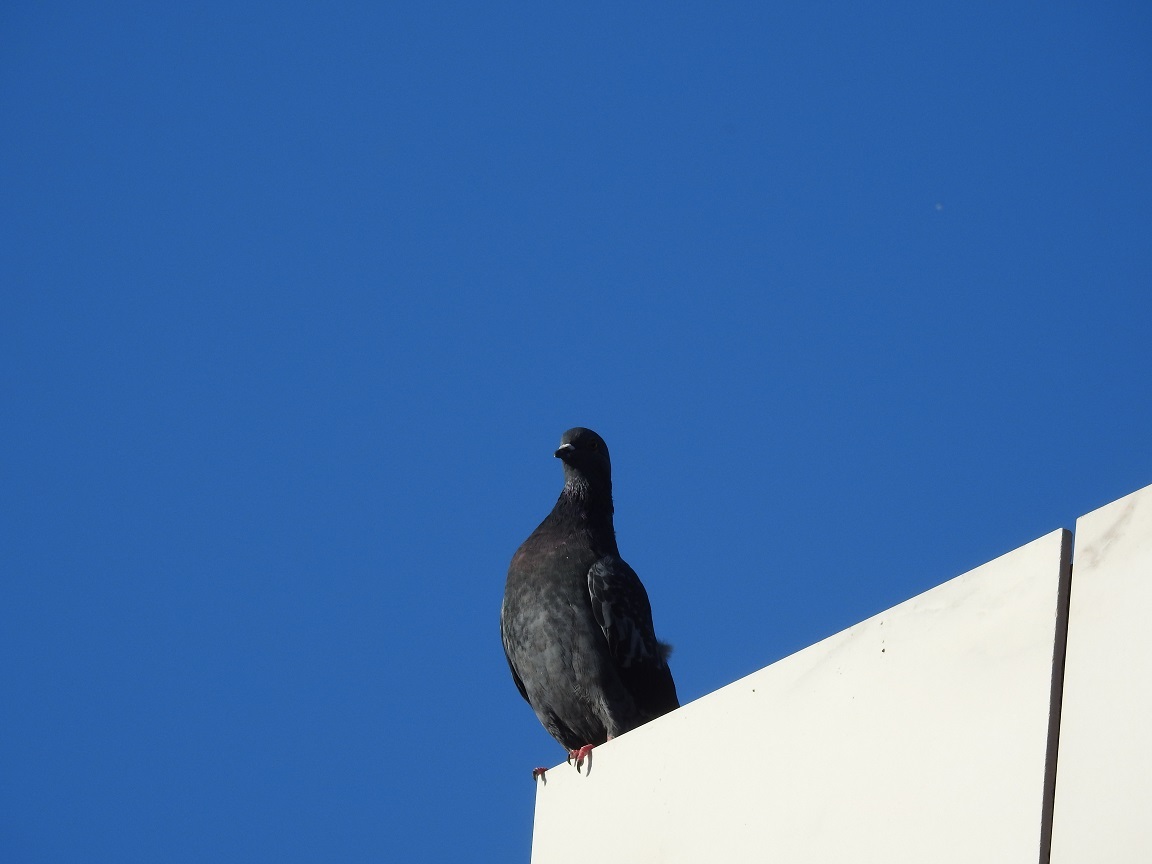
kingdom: Animalia
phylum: Chordata
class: Aves
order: Columbiformes
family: Columbidae
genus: Columba
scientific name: Columba livia
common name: Rock pigeon
